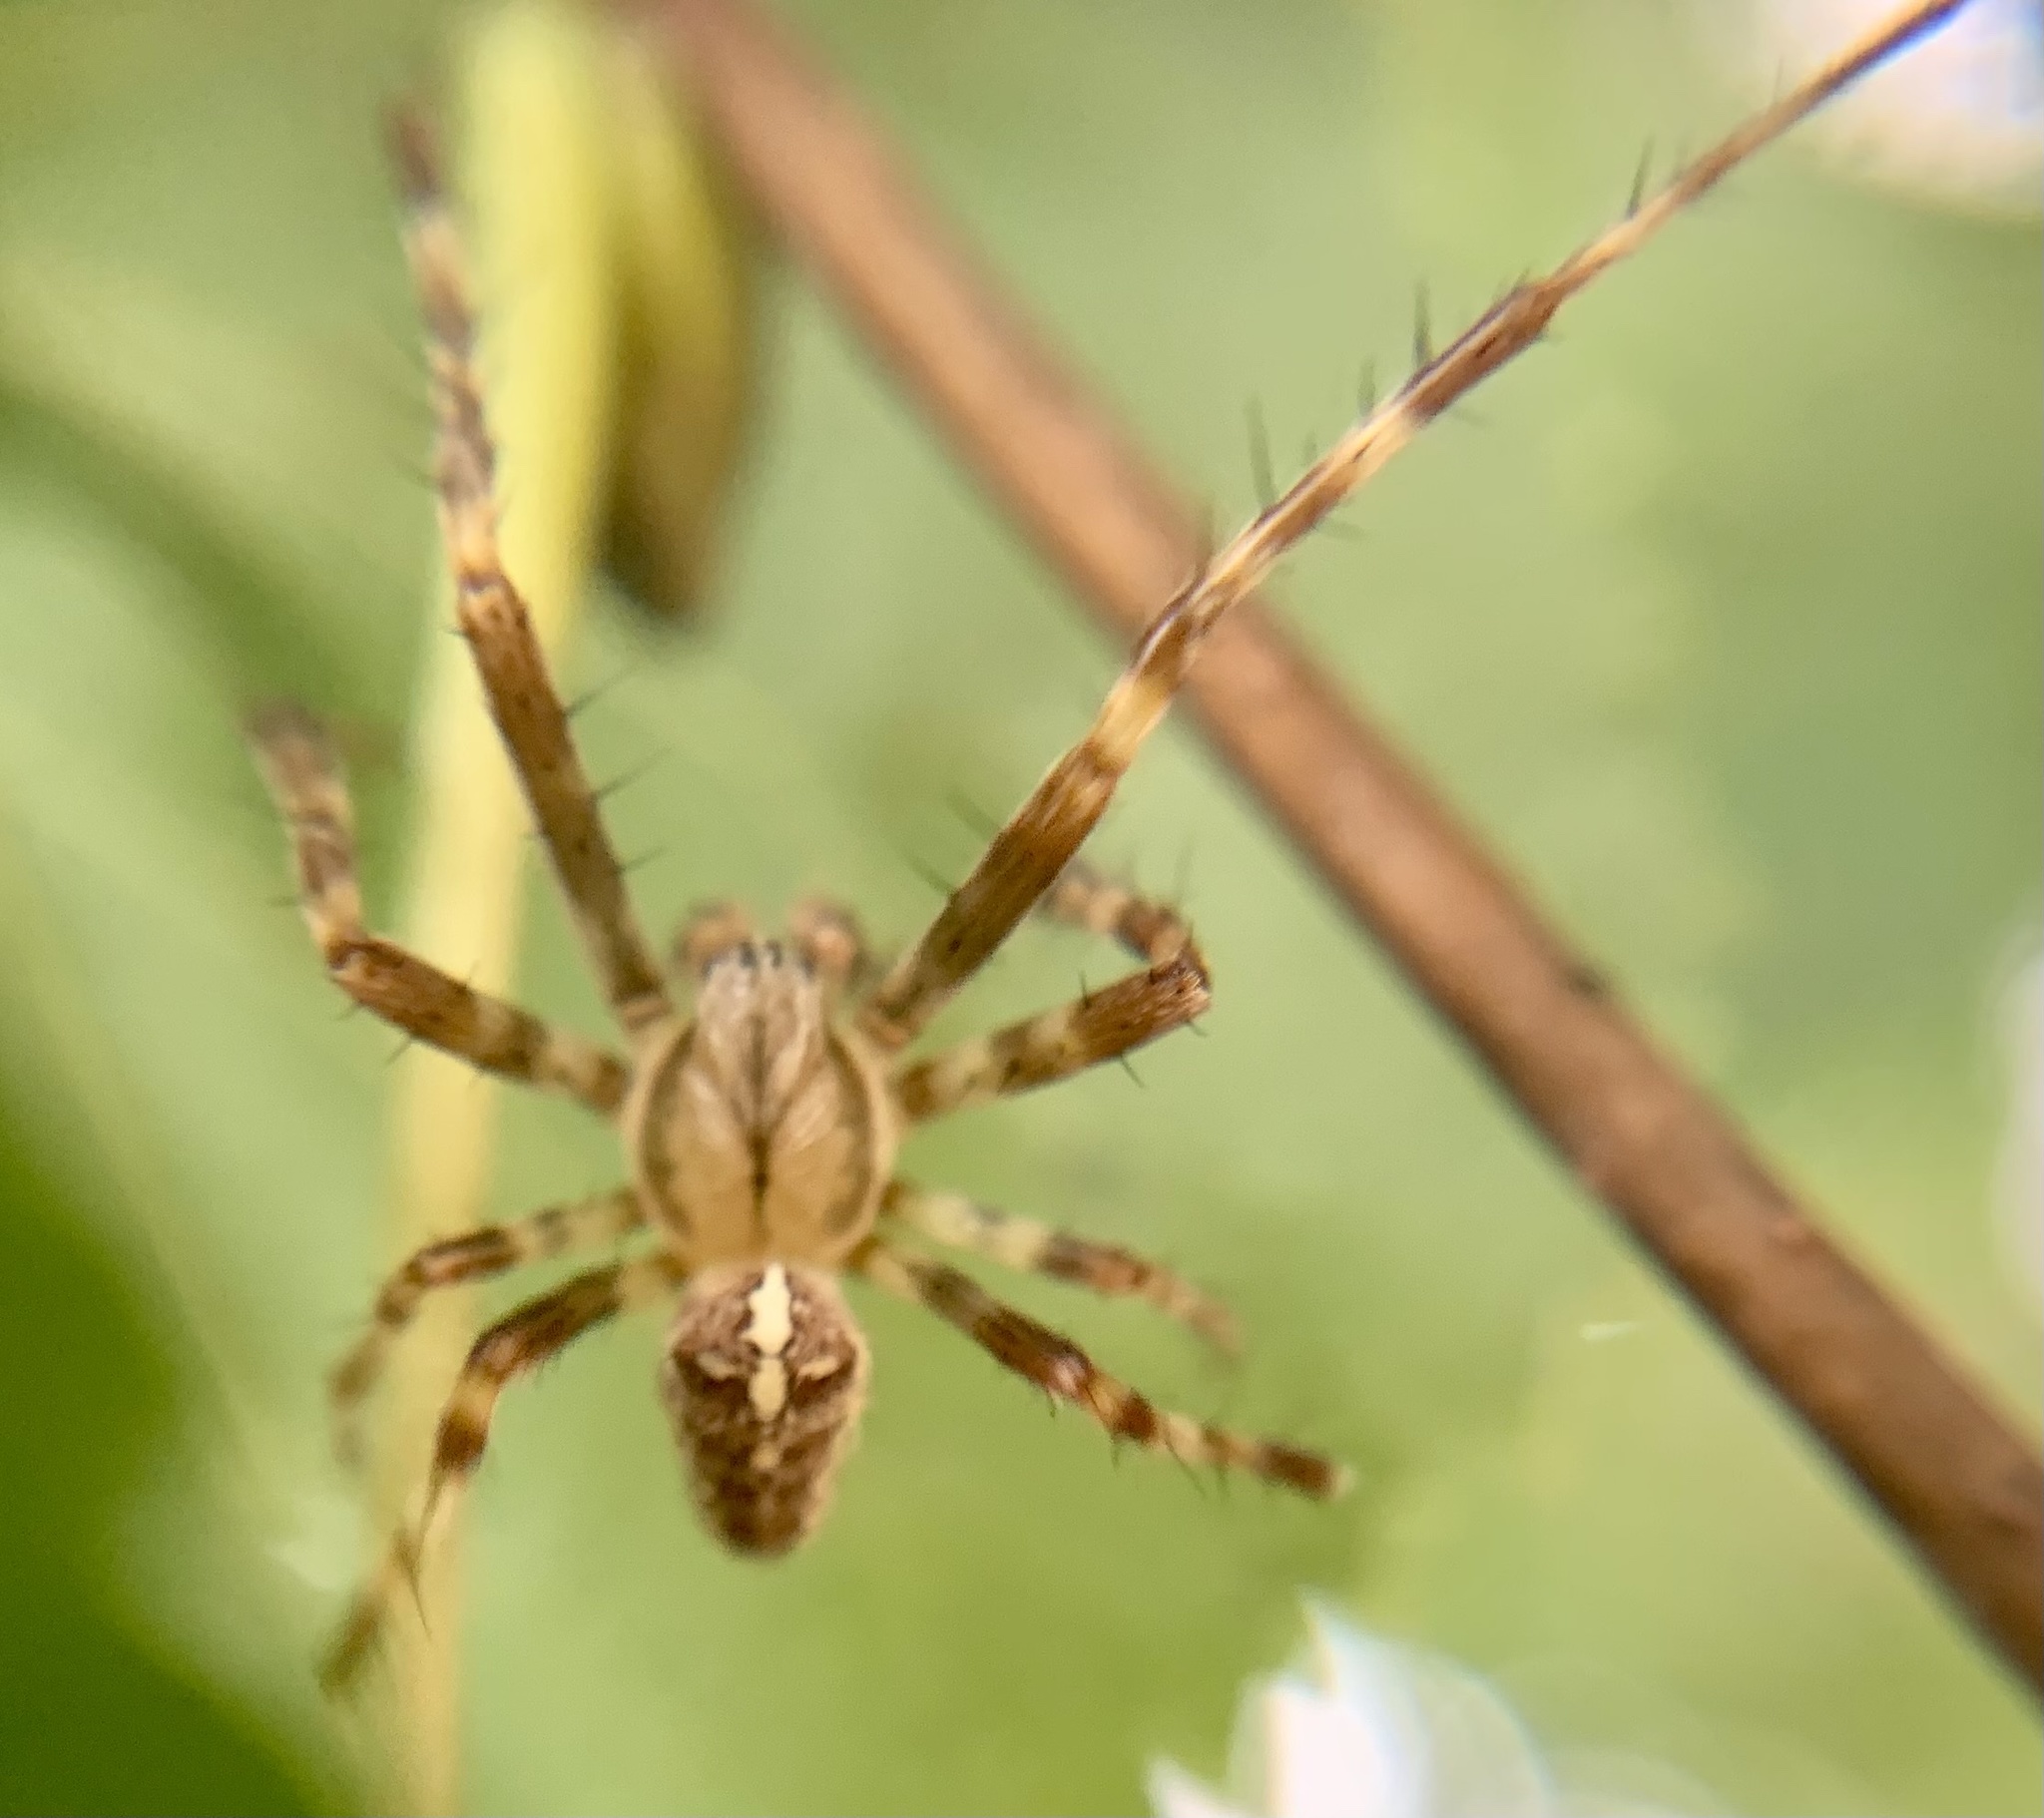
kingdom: Animalia
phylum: Arthropoda
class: Arachnida
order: Araneae
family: Araneidae
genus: Araneus
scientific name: Araneus diadematus
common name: Cross orbweaver
